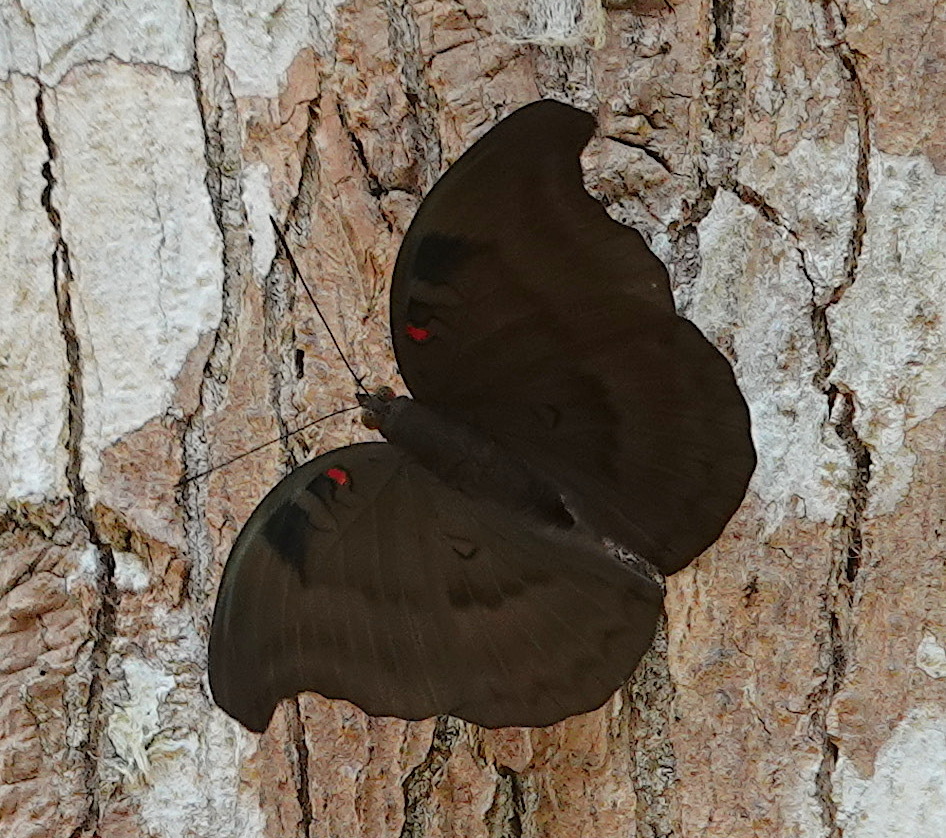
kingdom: Animalia
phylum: Arthropoda
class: Insecta
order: Lepidoptera
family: Nymphalidae
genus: Euthalia
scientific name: Euthalia Dophla evelina
